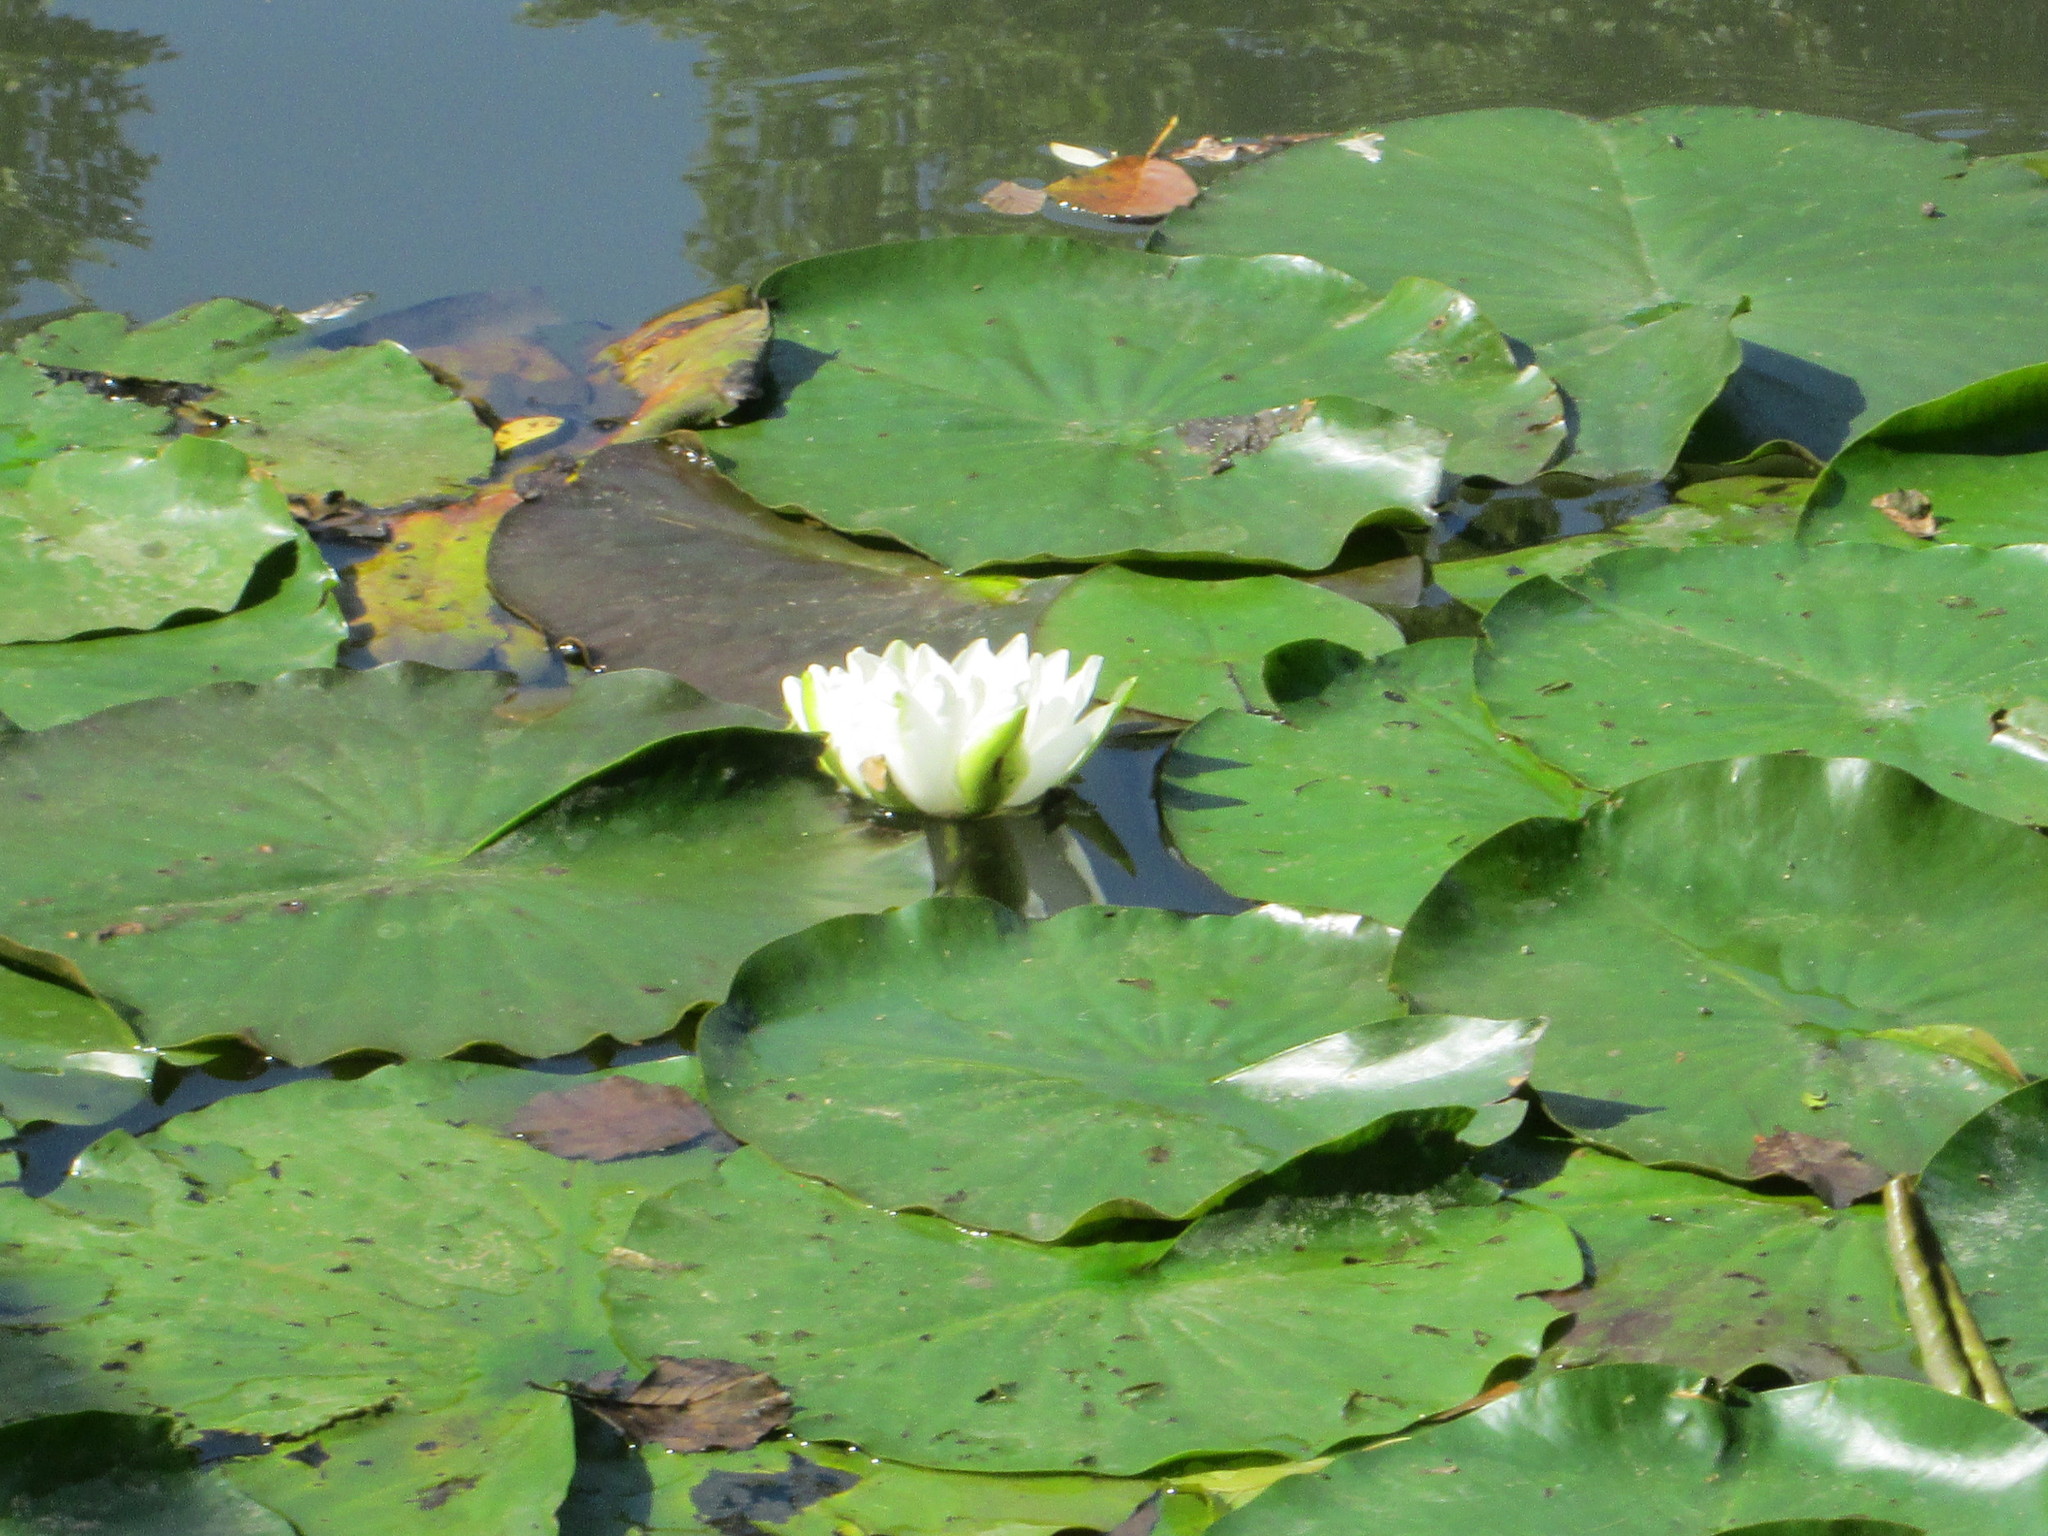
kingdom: Plantae
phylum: Tracheophyta
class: Magnoliopsida
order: Nymphaeales
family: Nymphaeaceae
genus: Nymphaea
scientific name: Nymphaea alba
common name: White water-lily
